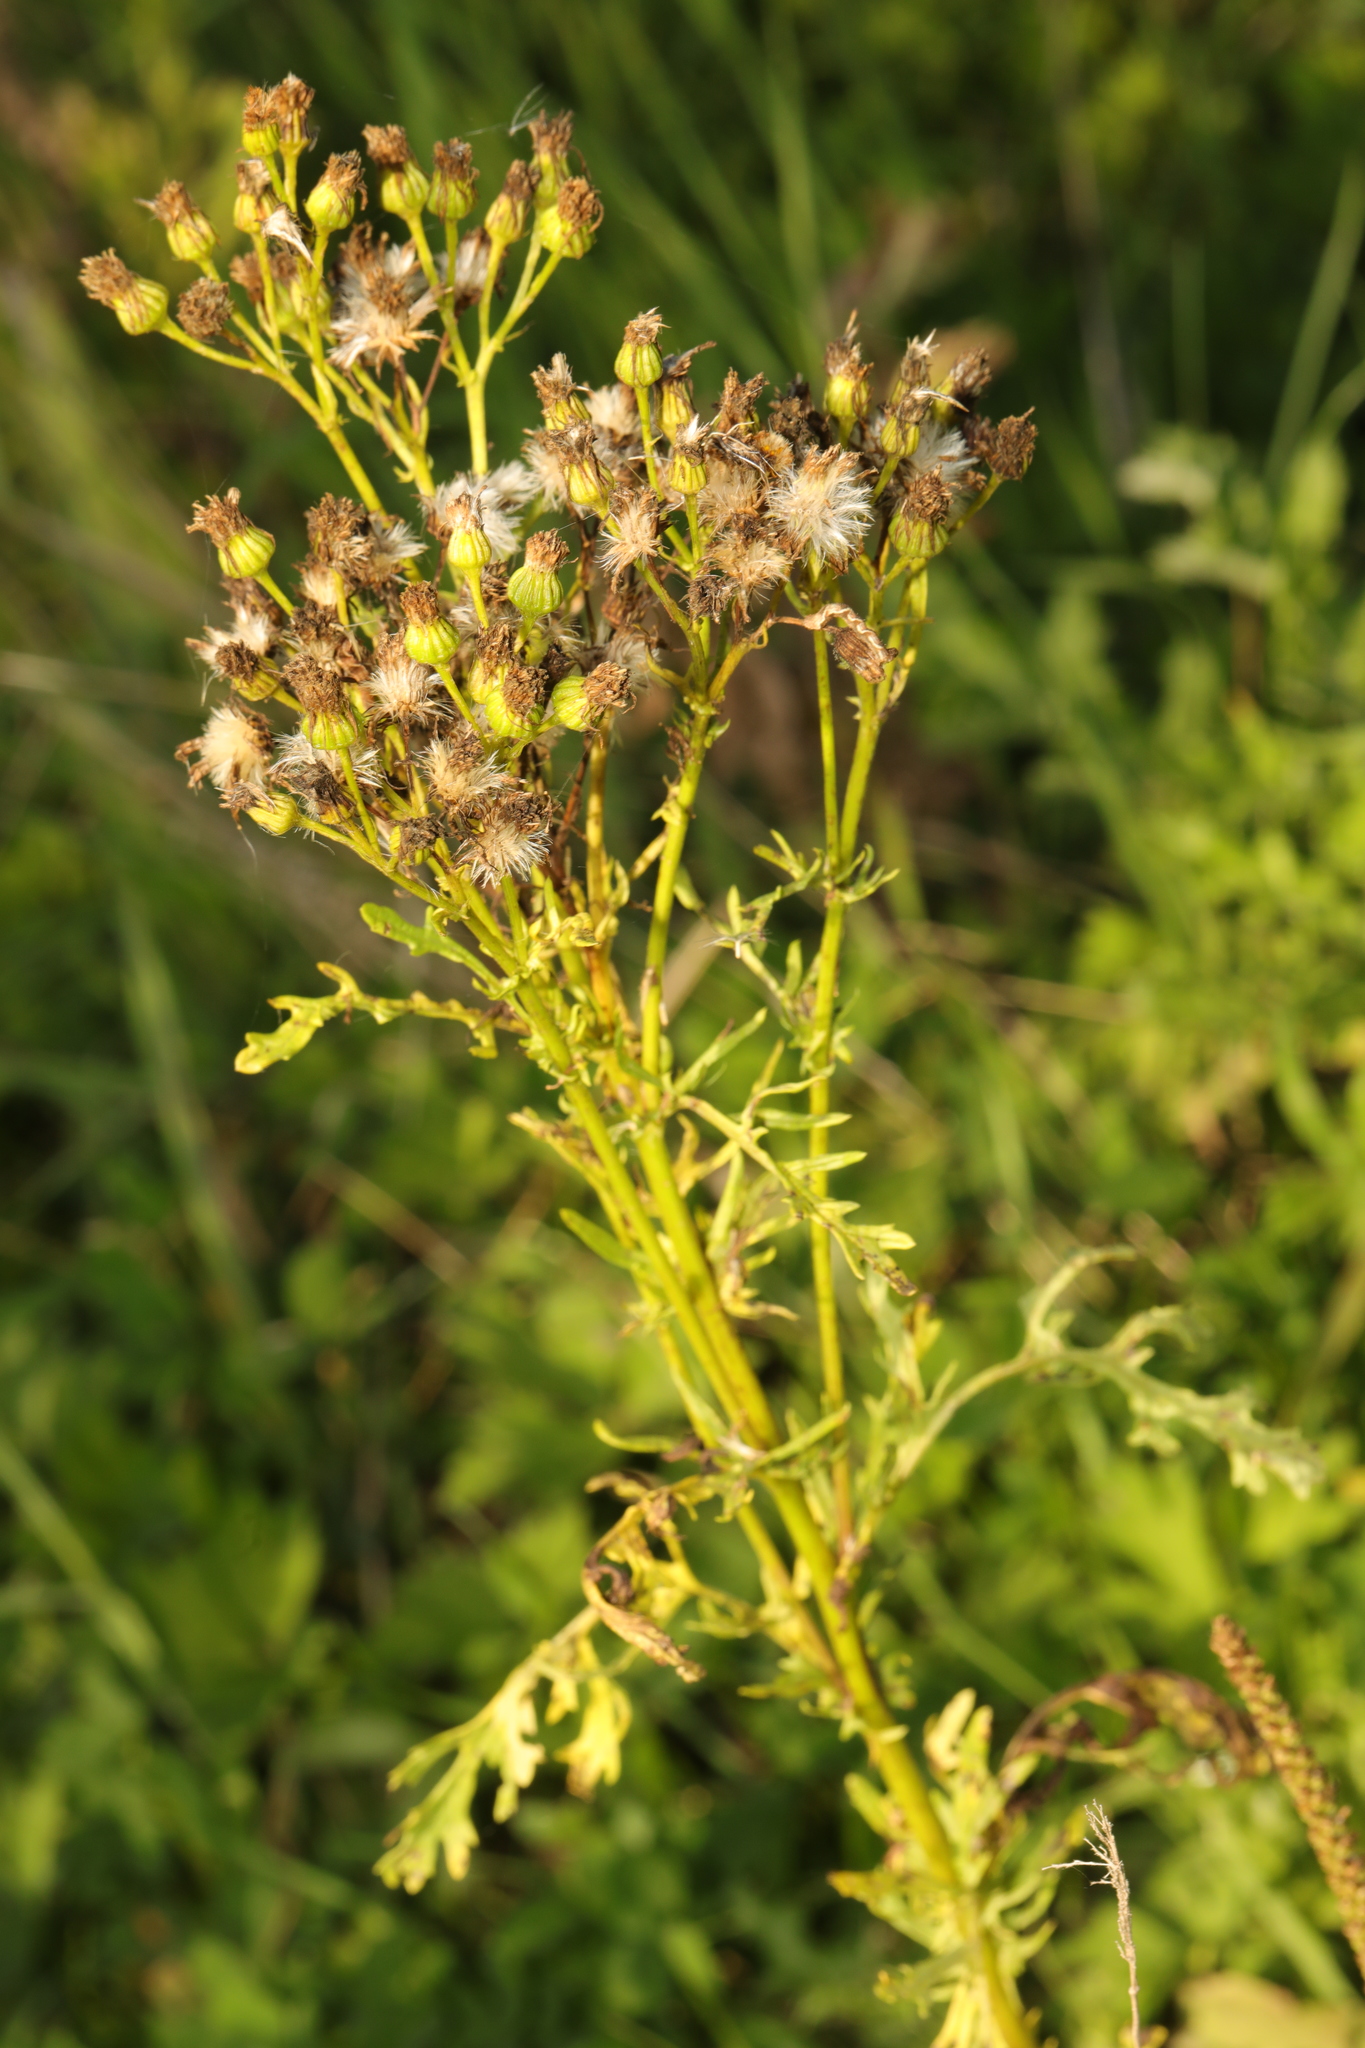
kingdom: Plantae
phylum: Tracheophyta
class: Magnoliopsida
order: Asterales
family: Asteraceae
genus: Jacobaea
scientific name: Jacobaea vulgaris
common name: Stinking willie
